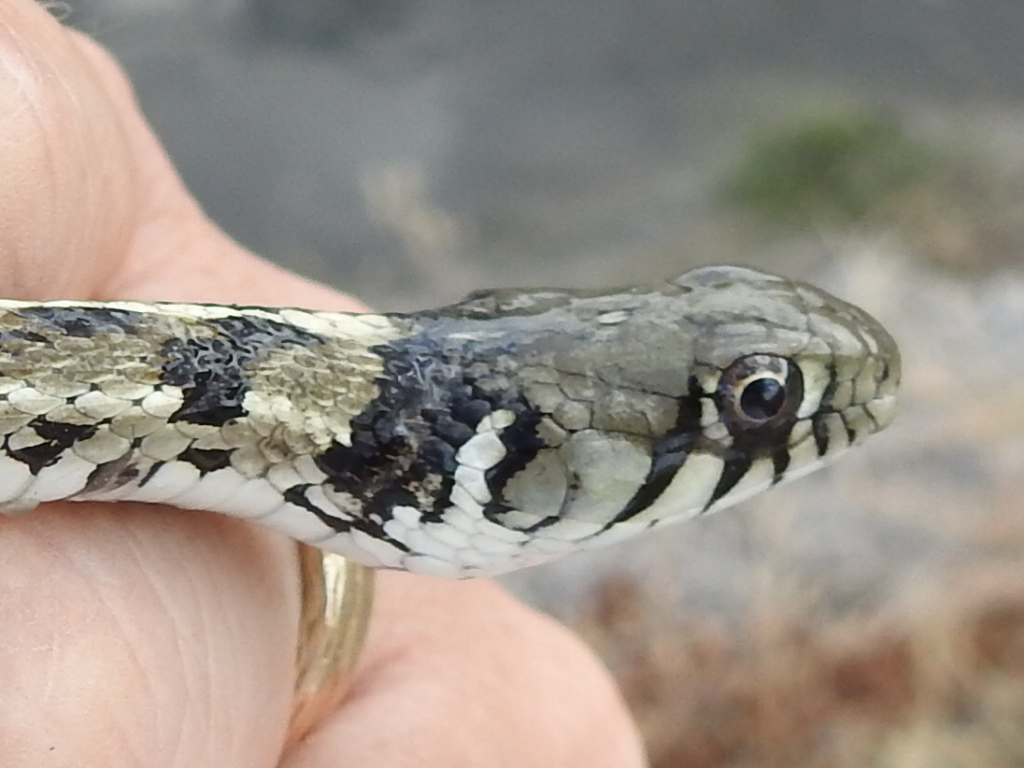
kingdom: Animalia
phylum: Chordata
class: Squamata
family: Colubridae
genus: Thamnophis
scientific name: Thamnophis marcianus
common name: Checkered garter snake
